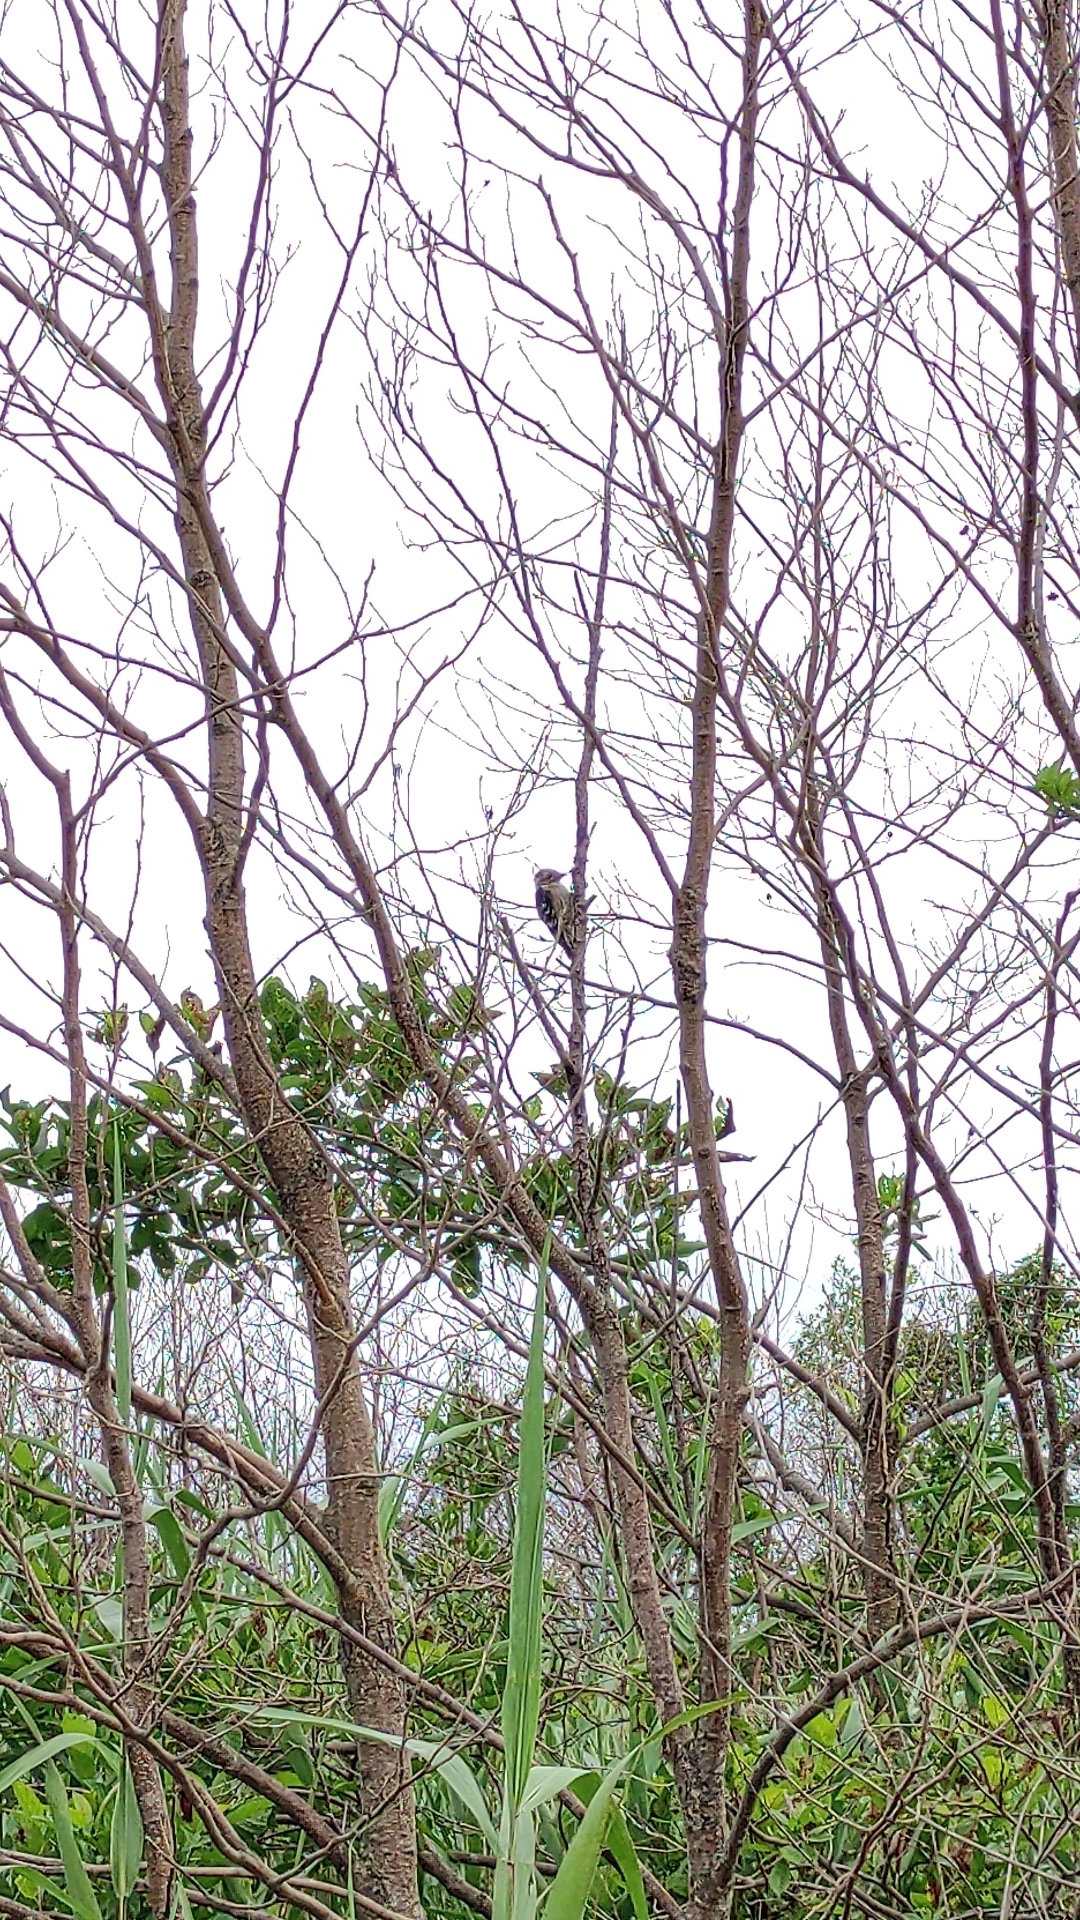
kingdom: Animalia
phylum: Chordata
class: Aves
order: Piciformes
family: Picidae
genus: Dryobates
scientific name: Dryobates minor
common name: Lesser spotted woodpecker
